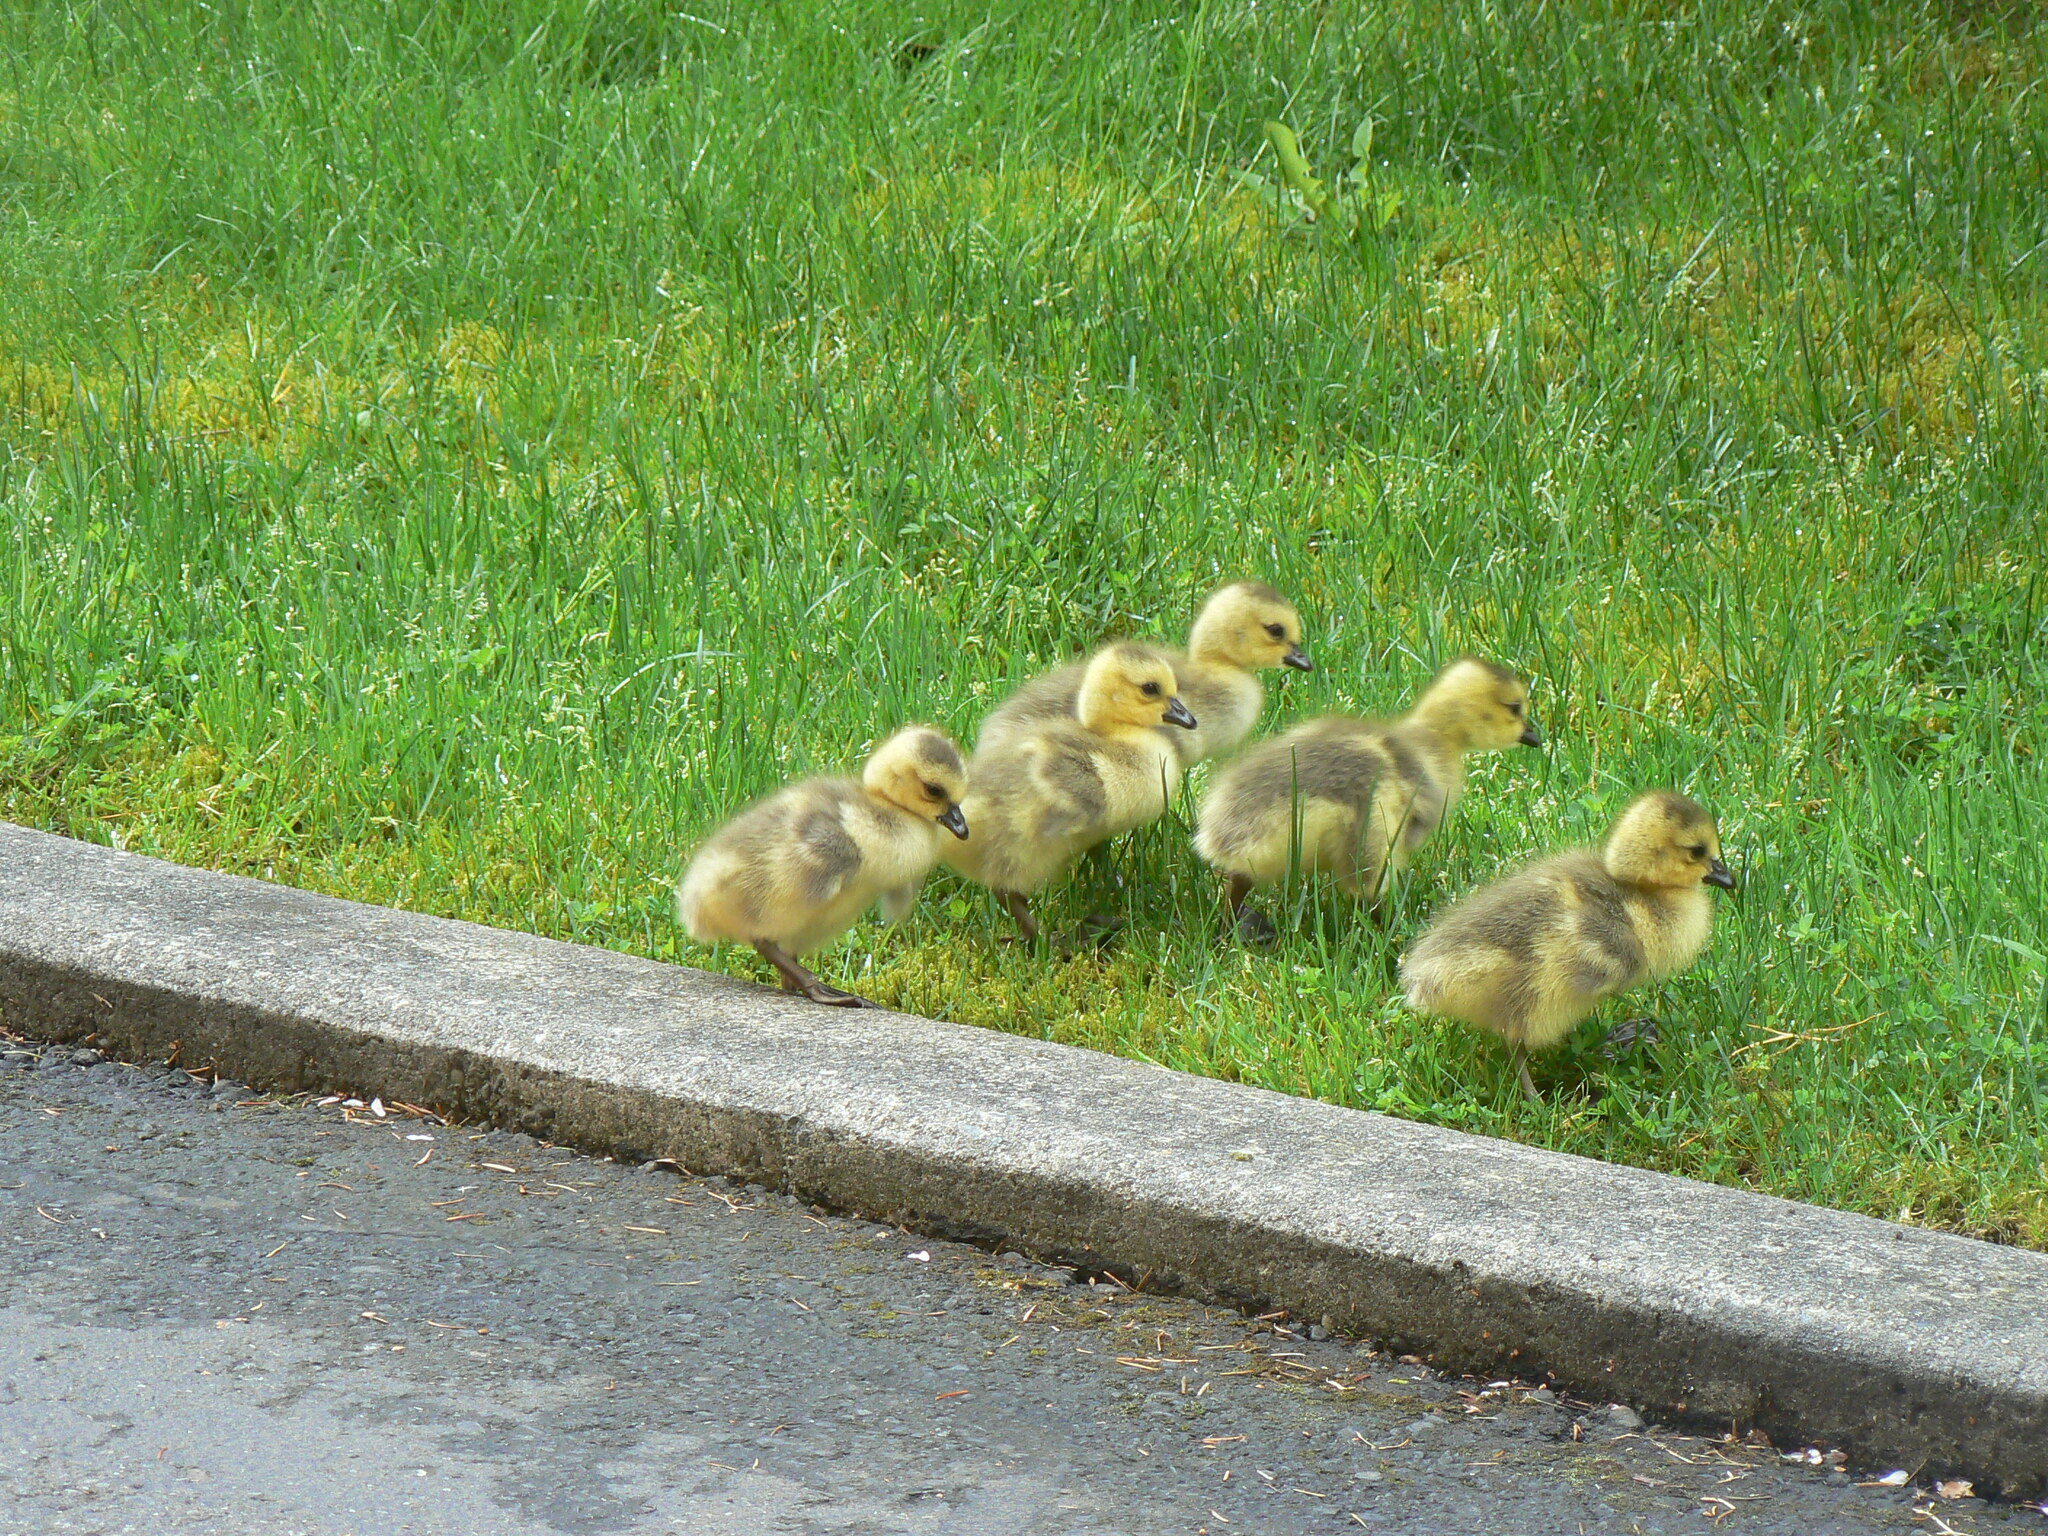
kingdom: Animalia
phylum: Chordata
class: Aves
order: Anseriformes
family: Anatidae
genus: Branta
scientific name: Branta canadensis
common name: Canada goose
